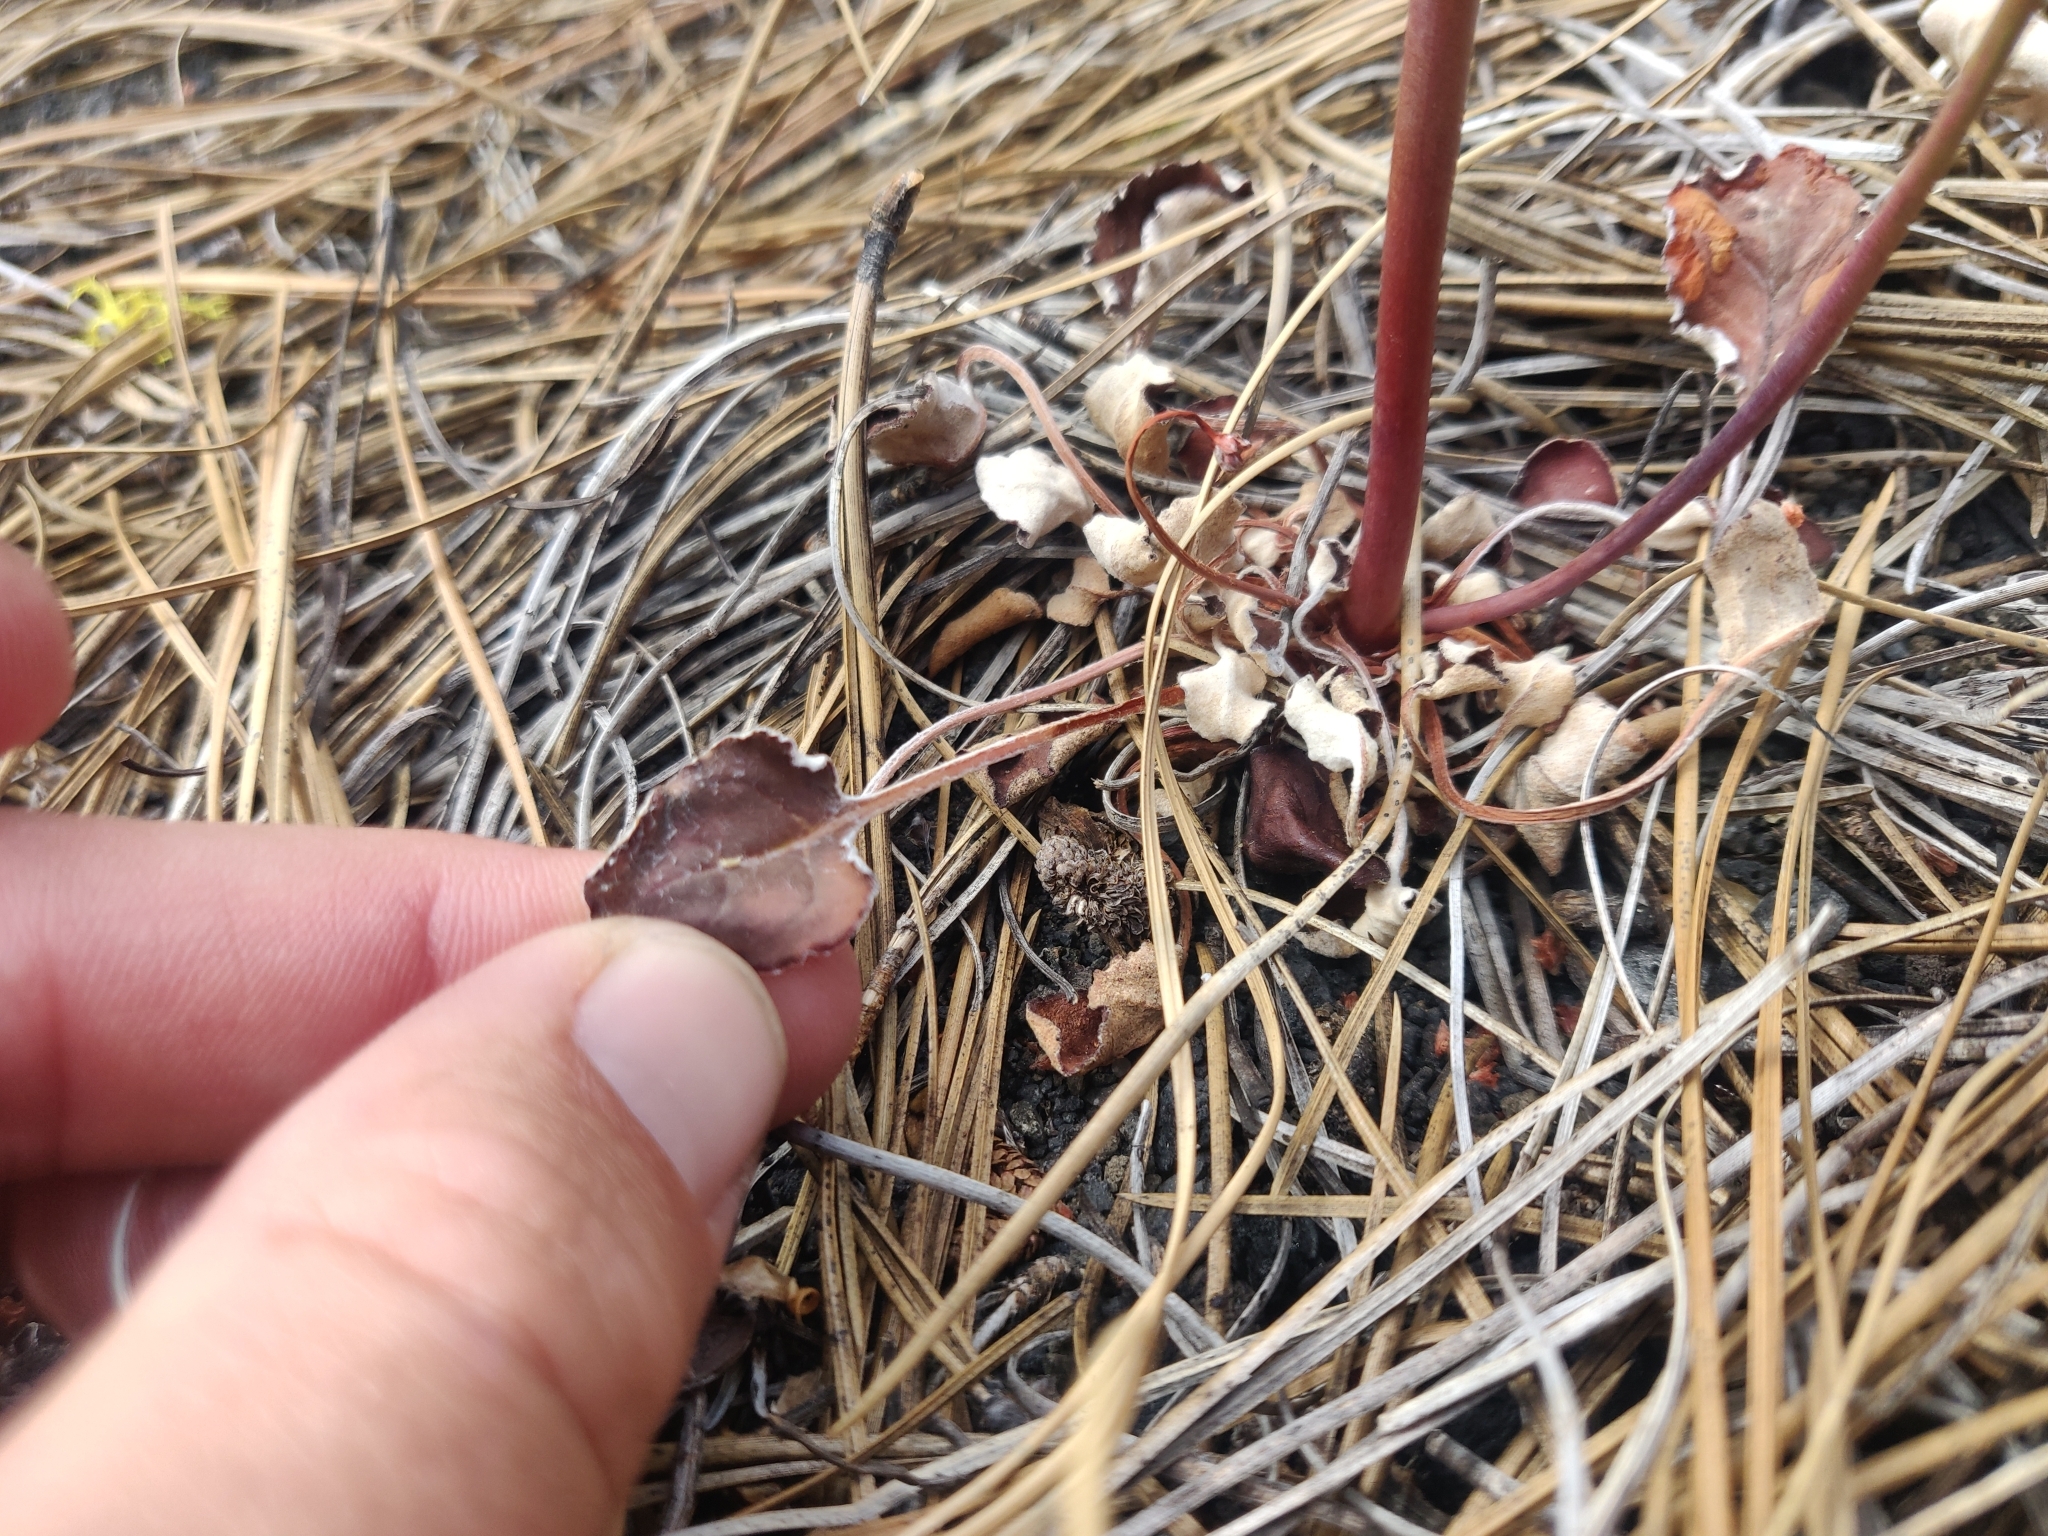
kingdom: Plantae
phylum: Tracheophyta
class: Magnoliopsida
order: Caryophyllales
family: Polygonaceae
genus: Eriogonum
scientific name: Eriogonum nudum
